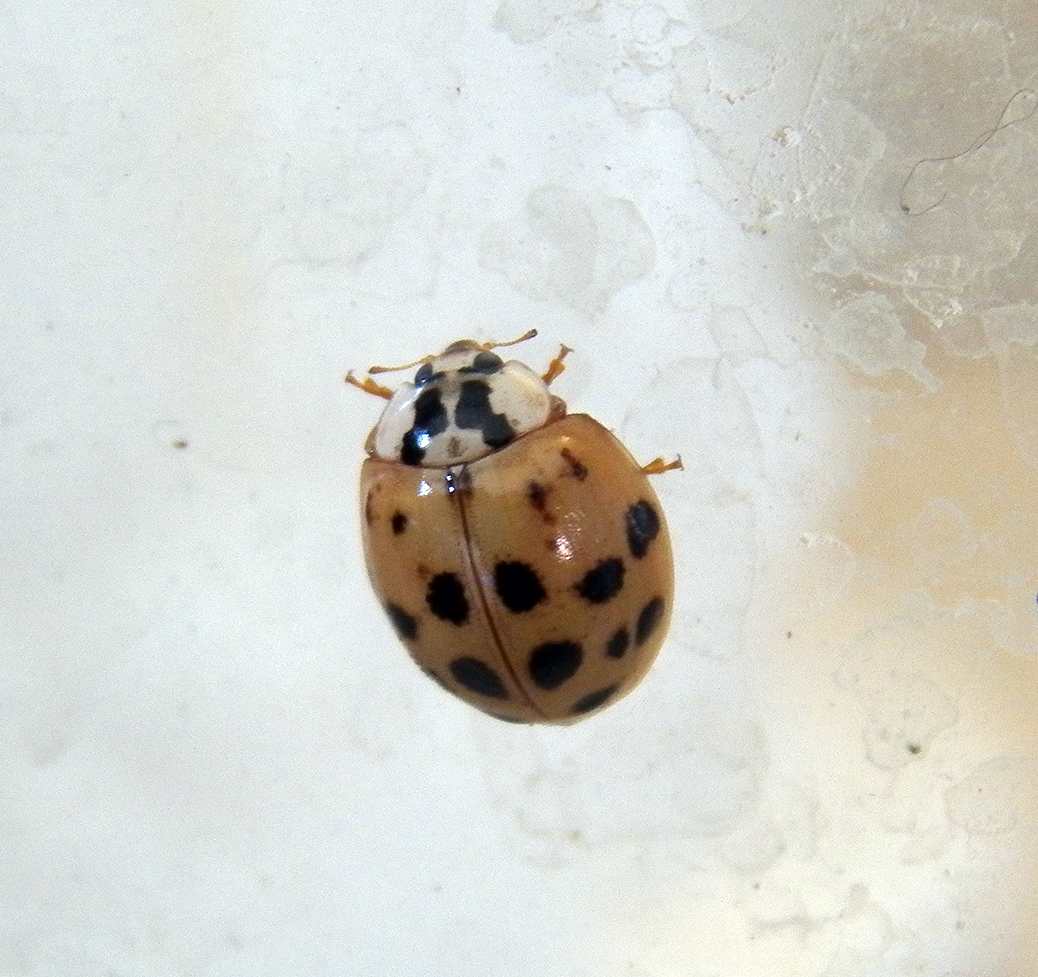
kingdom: Animalia
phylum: Arthropoda
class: Insecta
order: Coleoptera
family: Coccinellidae
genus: Harmonia
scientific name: Harmonia axyridis
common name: Harlequin ladybird
